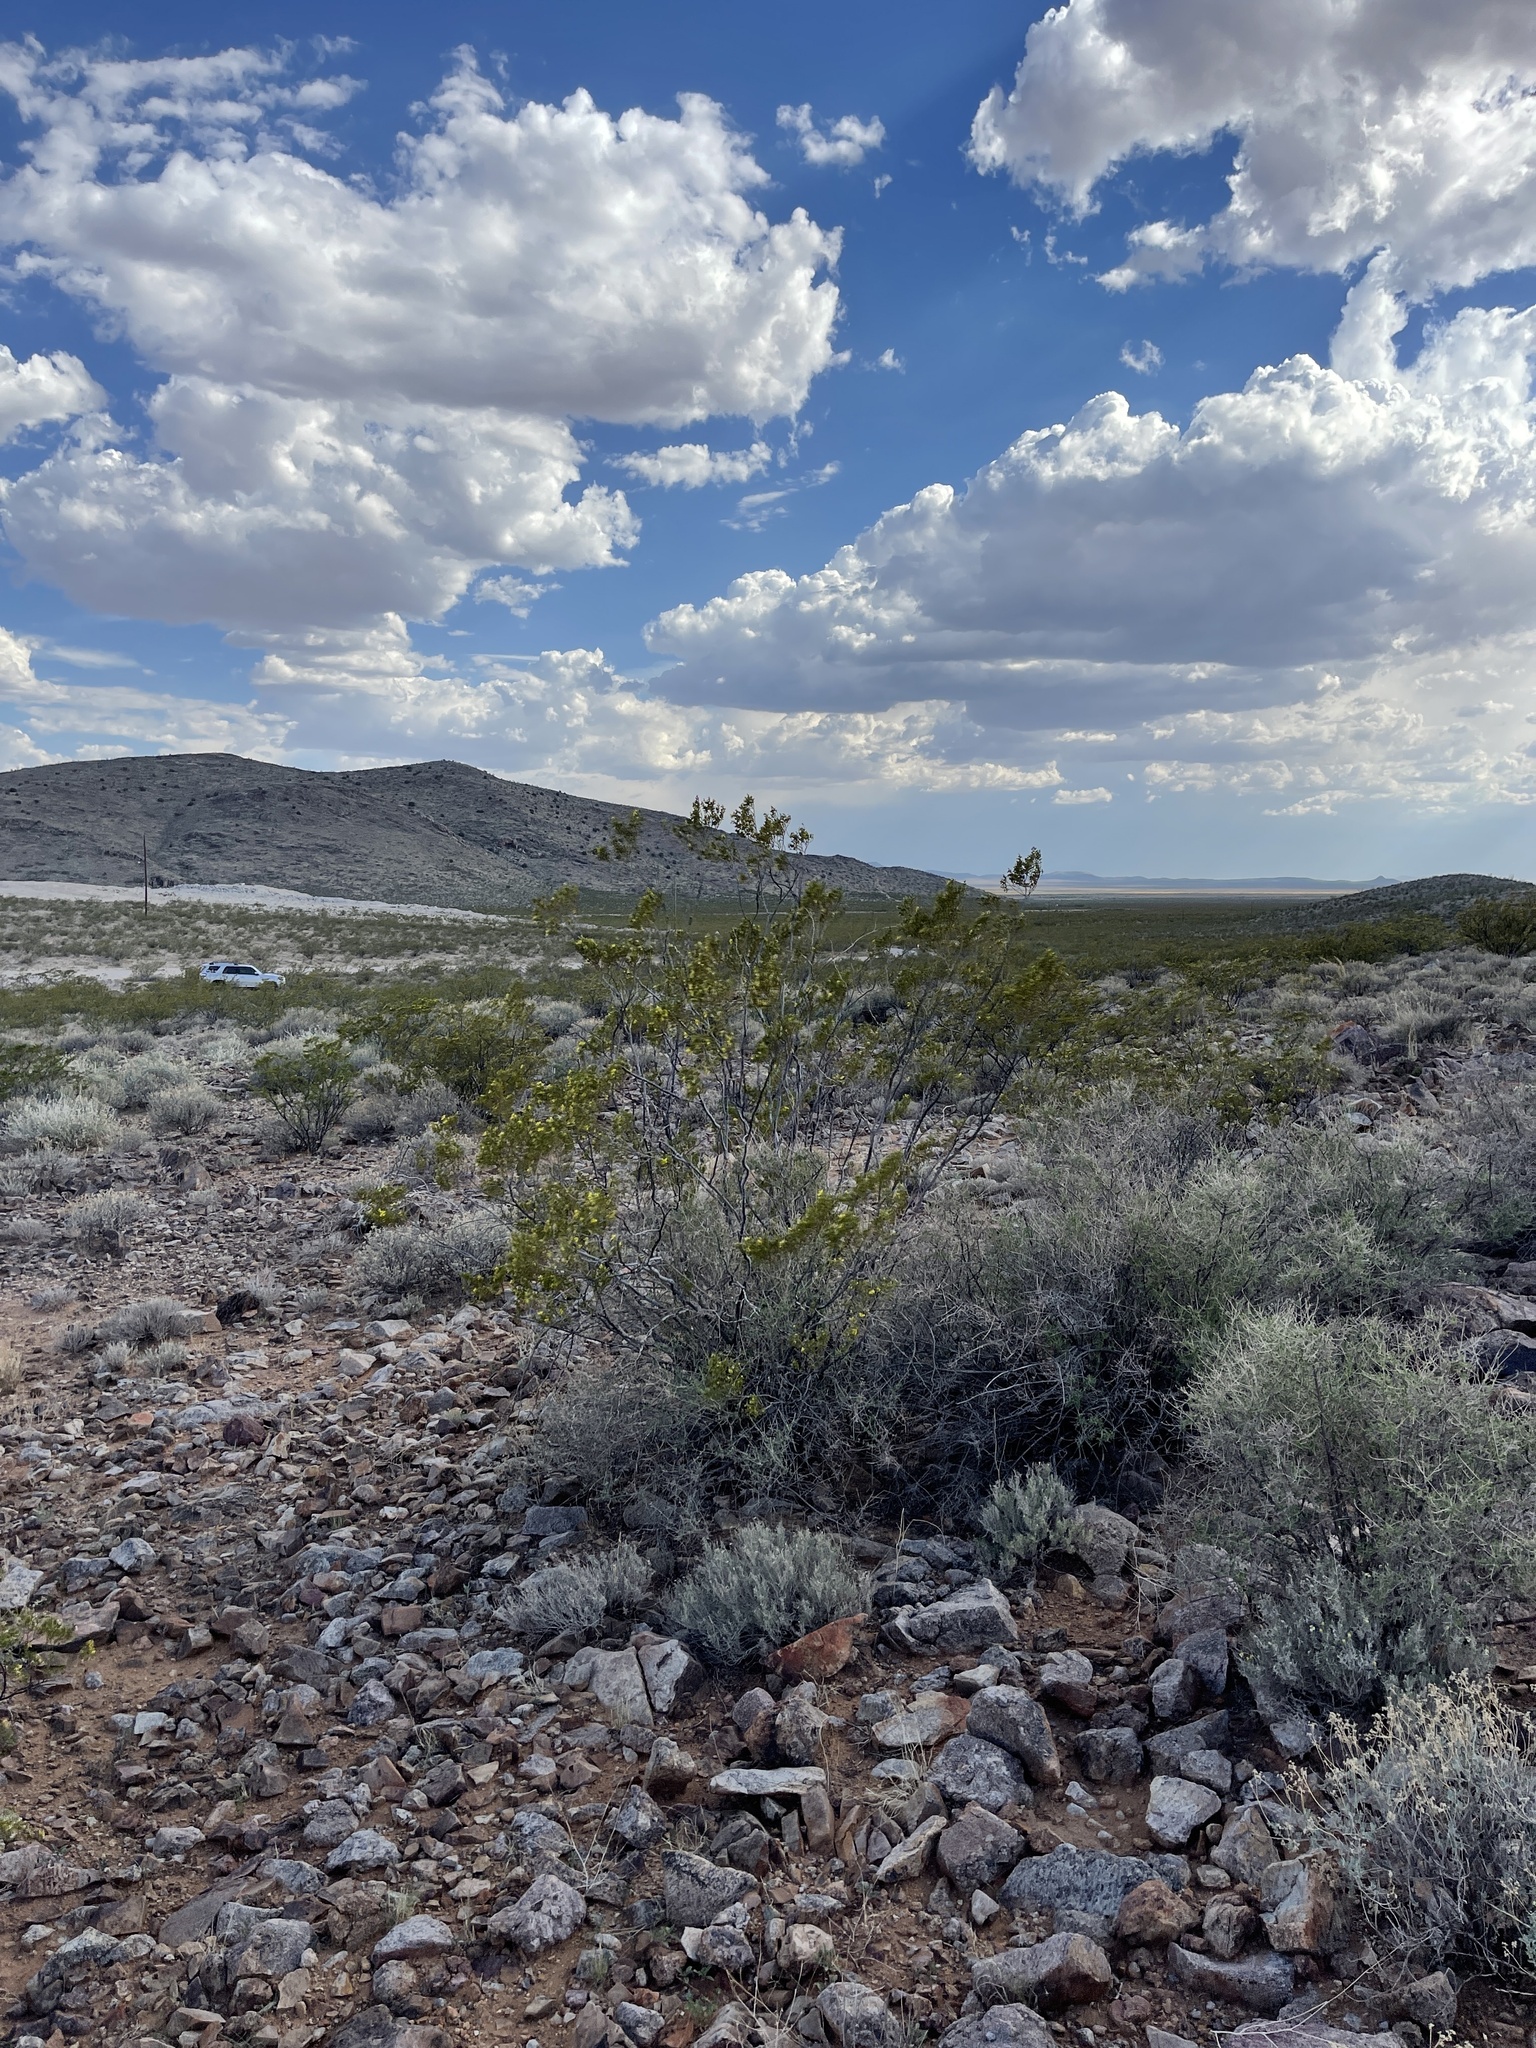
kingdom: Plantae
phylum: Tracheophyta
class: Magnoliopsida
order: Zygophyllales
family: Zygophyllaceae
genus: Larrea
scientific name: Larrea tridentata
